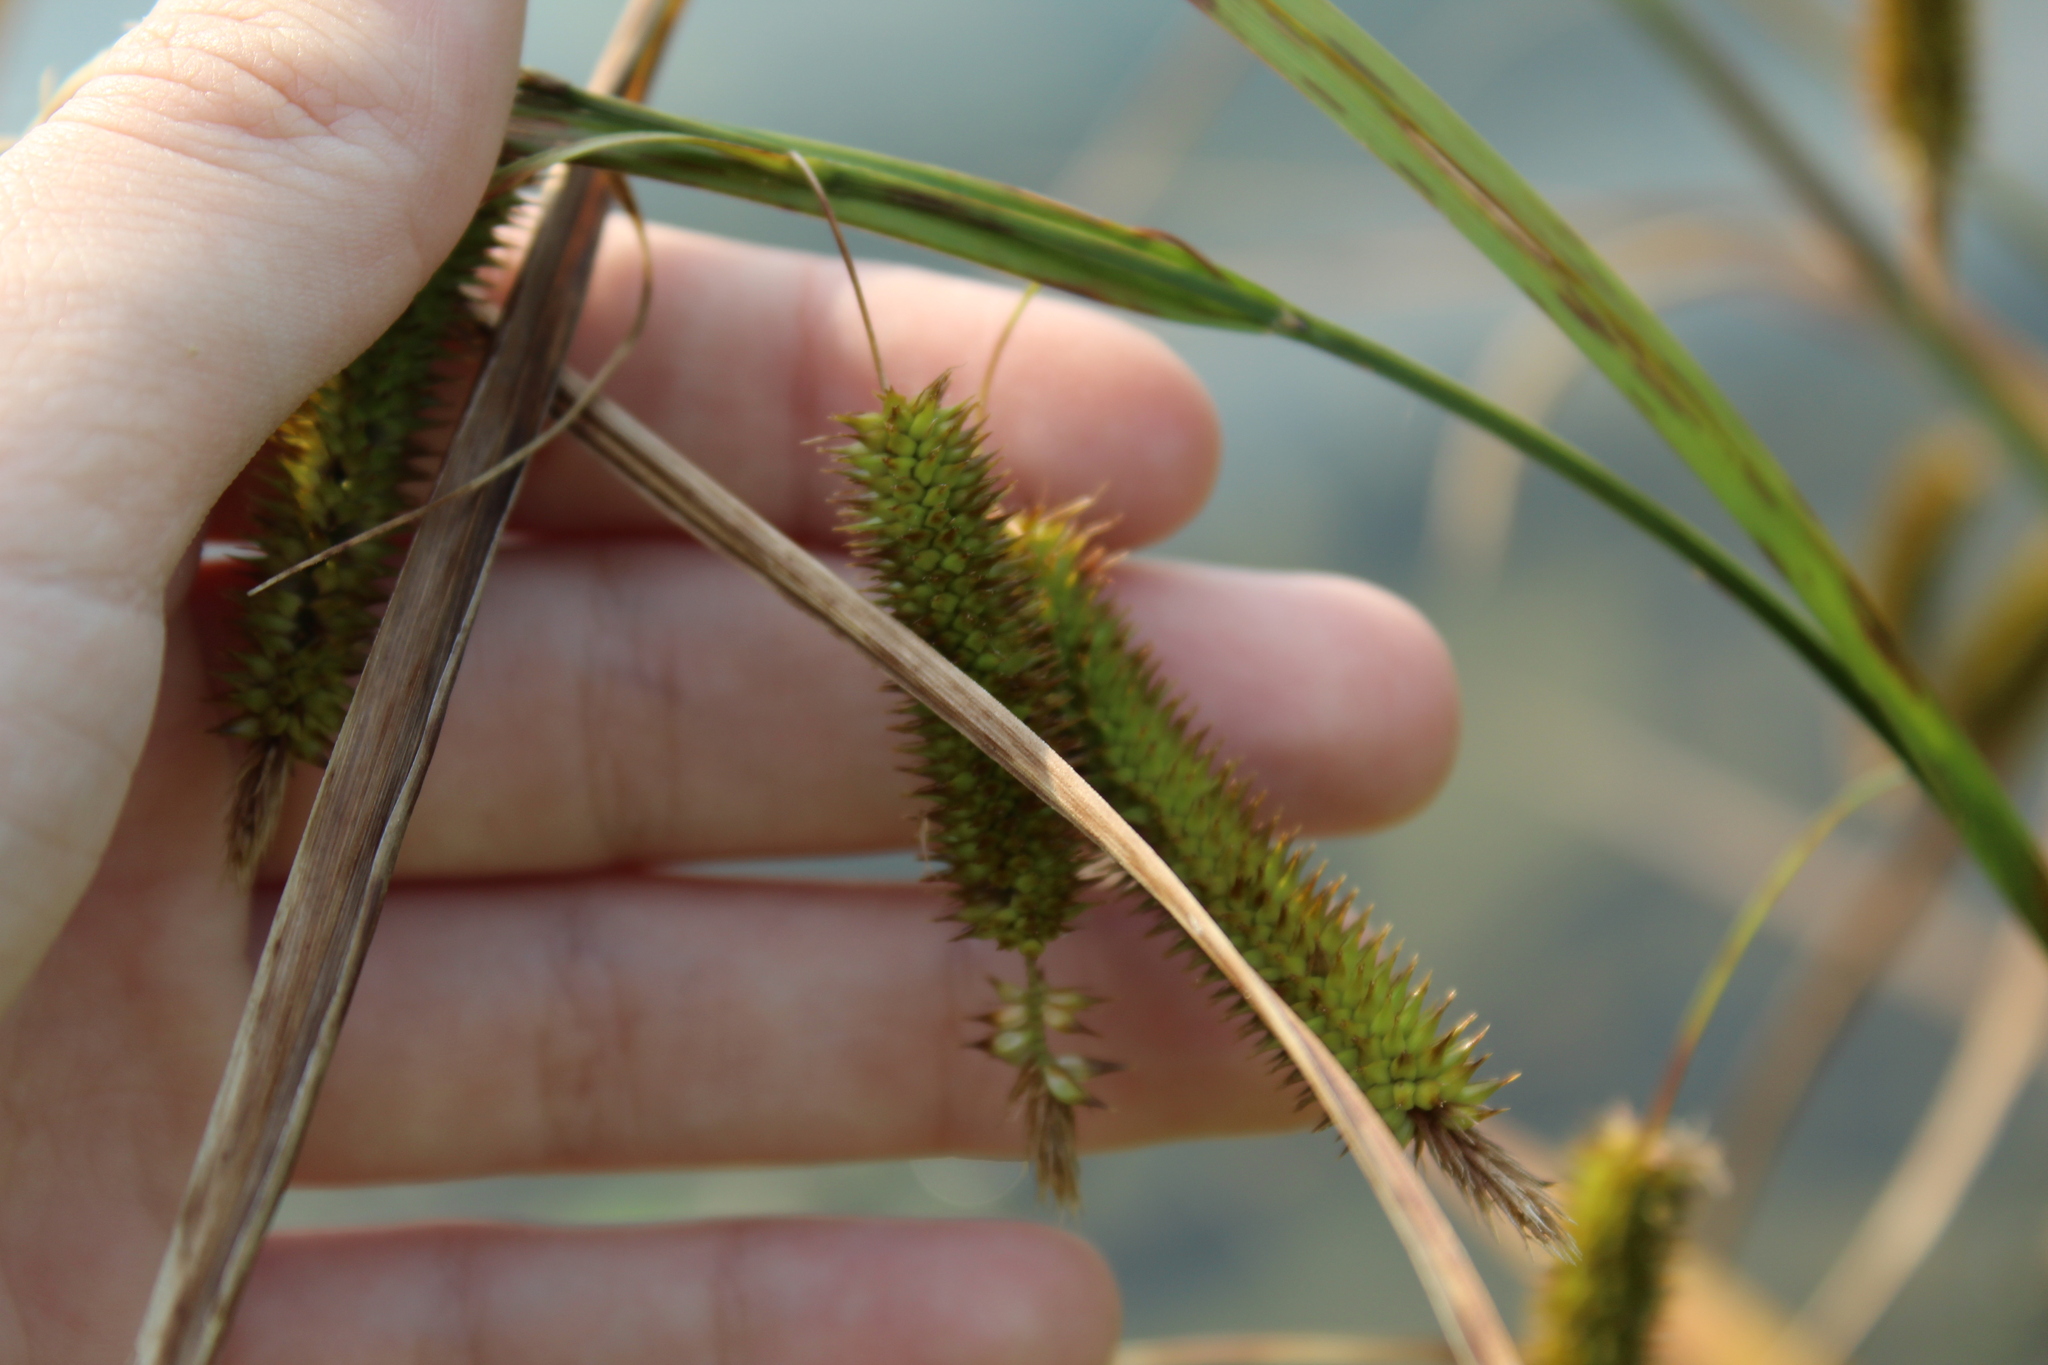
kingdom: Plantae
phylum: Tracheophyta
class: Liliopsida
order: Poales
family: Cyperaceae
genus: Carex
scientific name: Carex pseudocyperus
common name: Cyperus sedge
